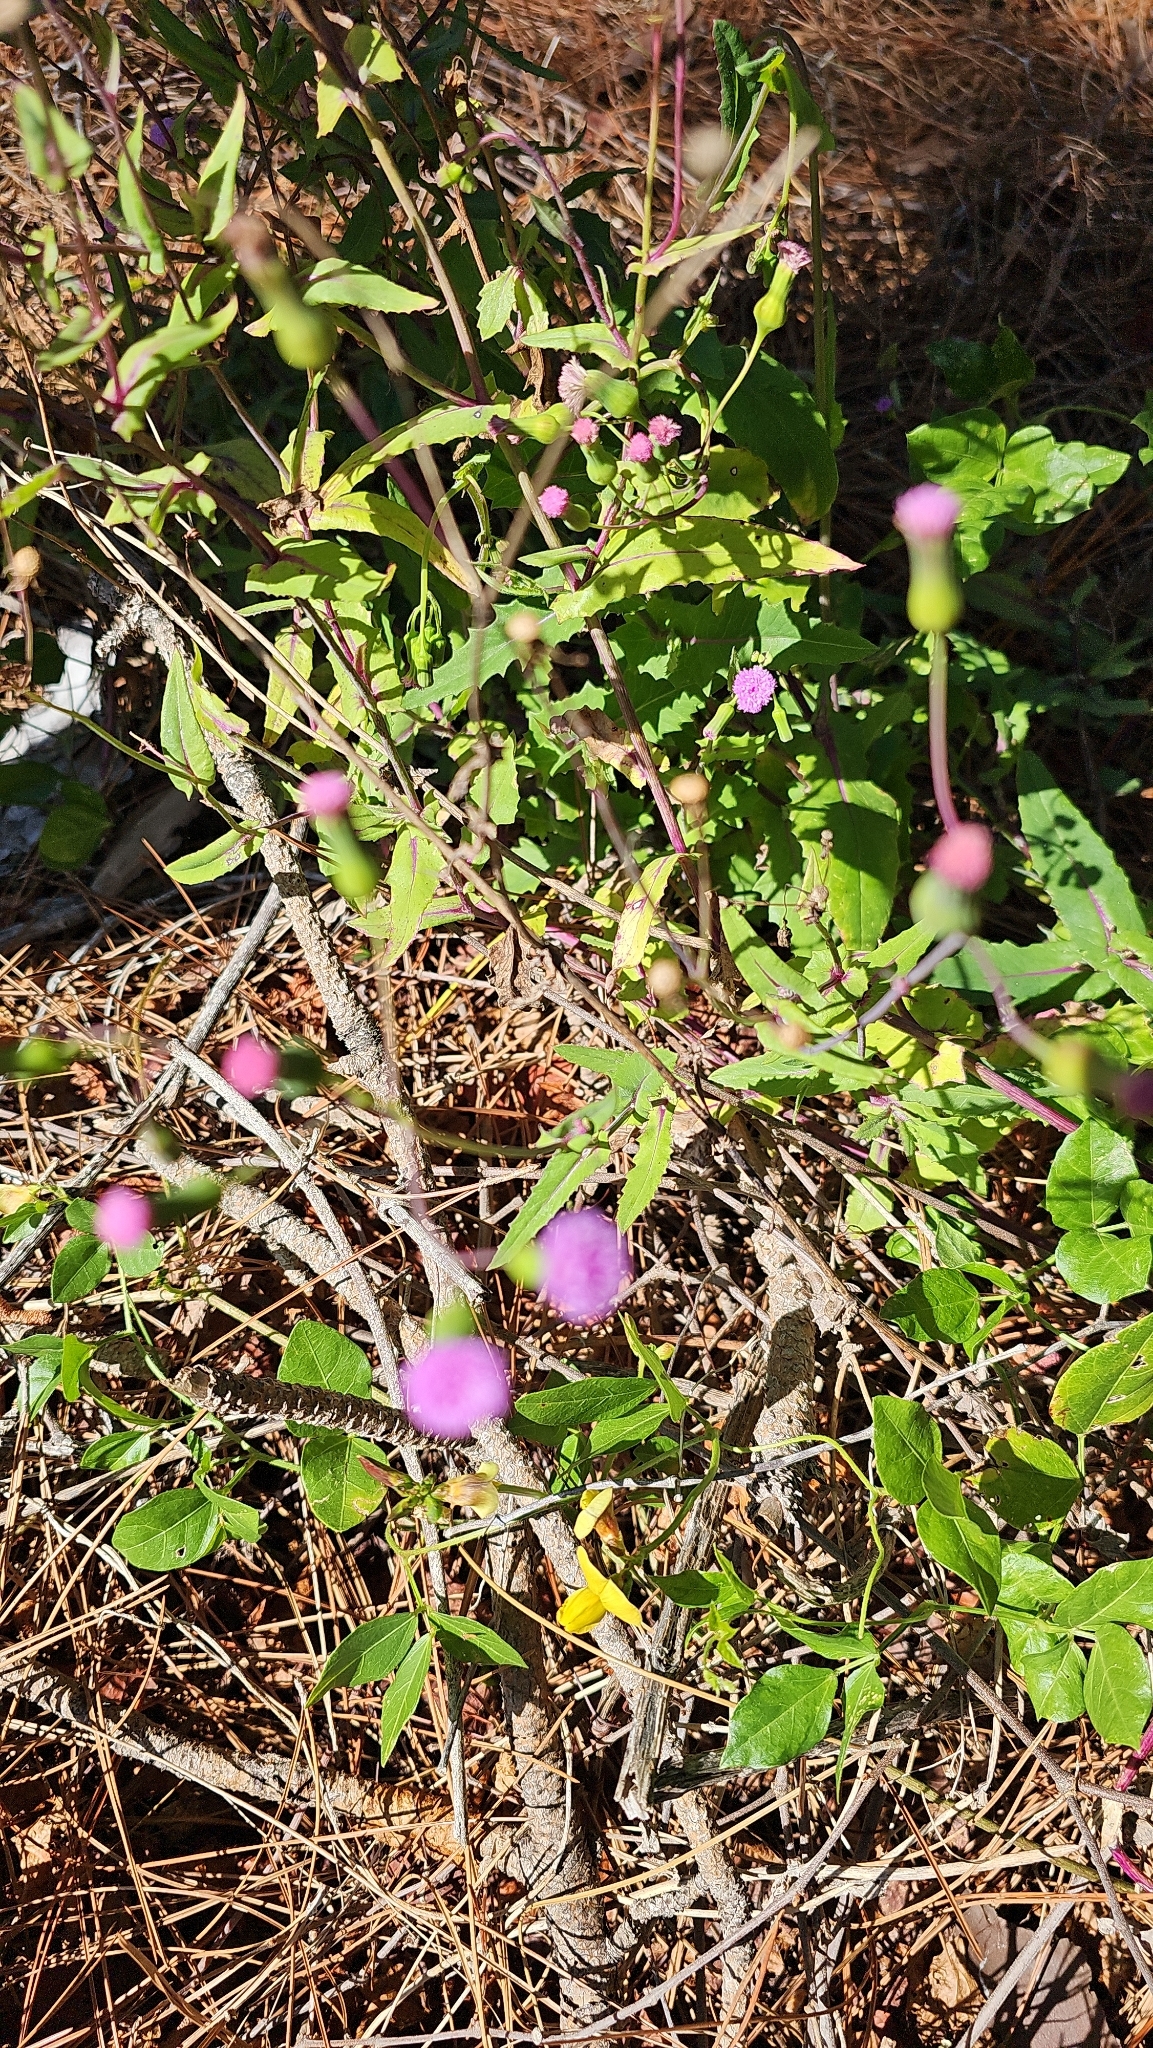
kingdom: Plantae
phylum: Tracheophyta
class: Magnoliopsida
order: Asterales
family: Asteraceae
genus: Emilia
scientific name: Emilia sonchifolia
